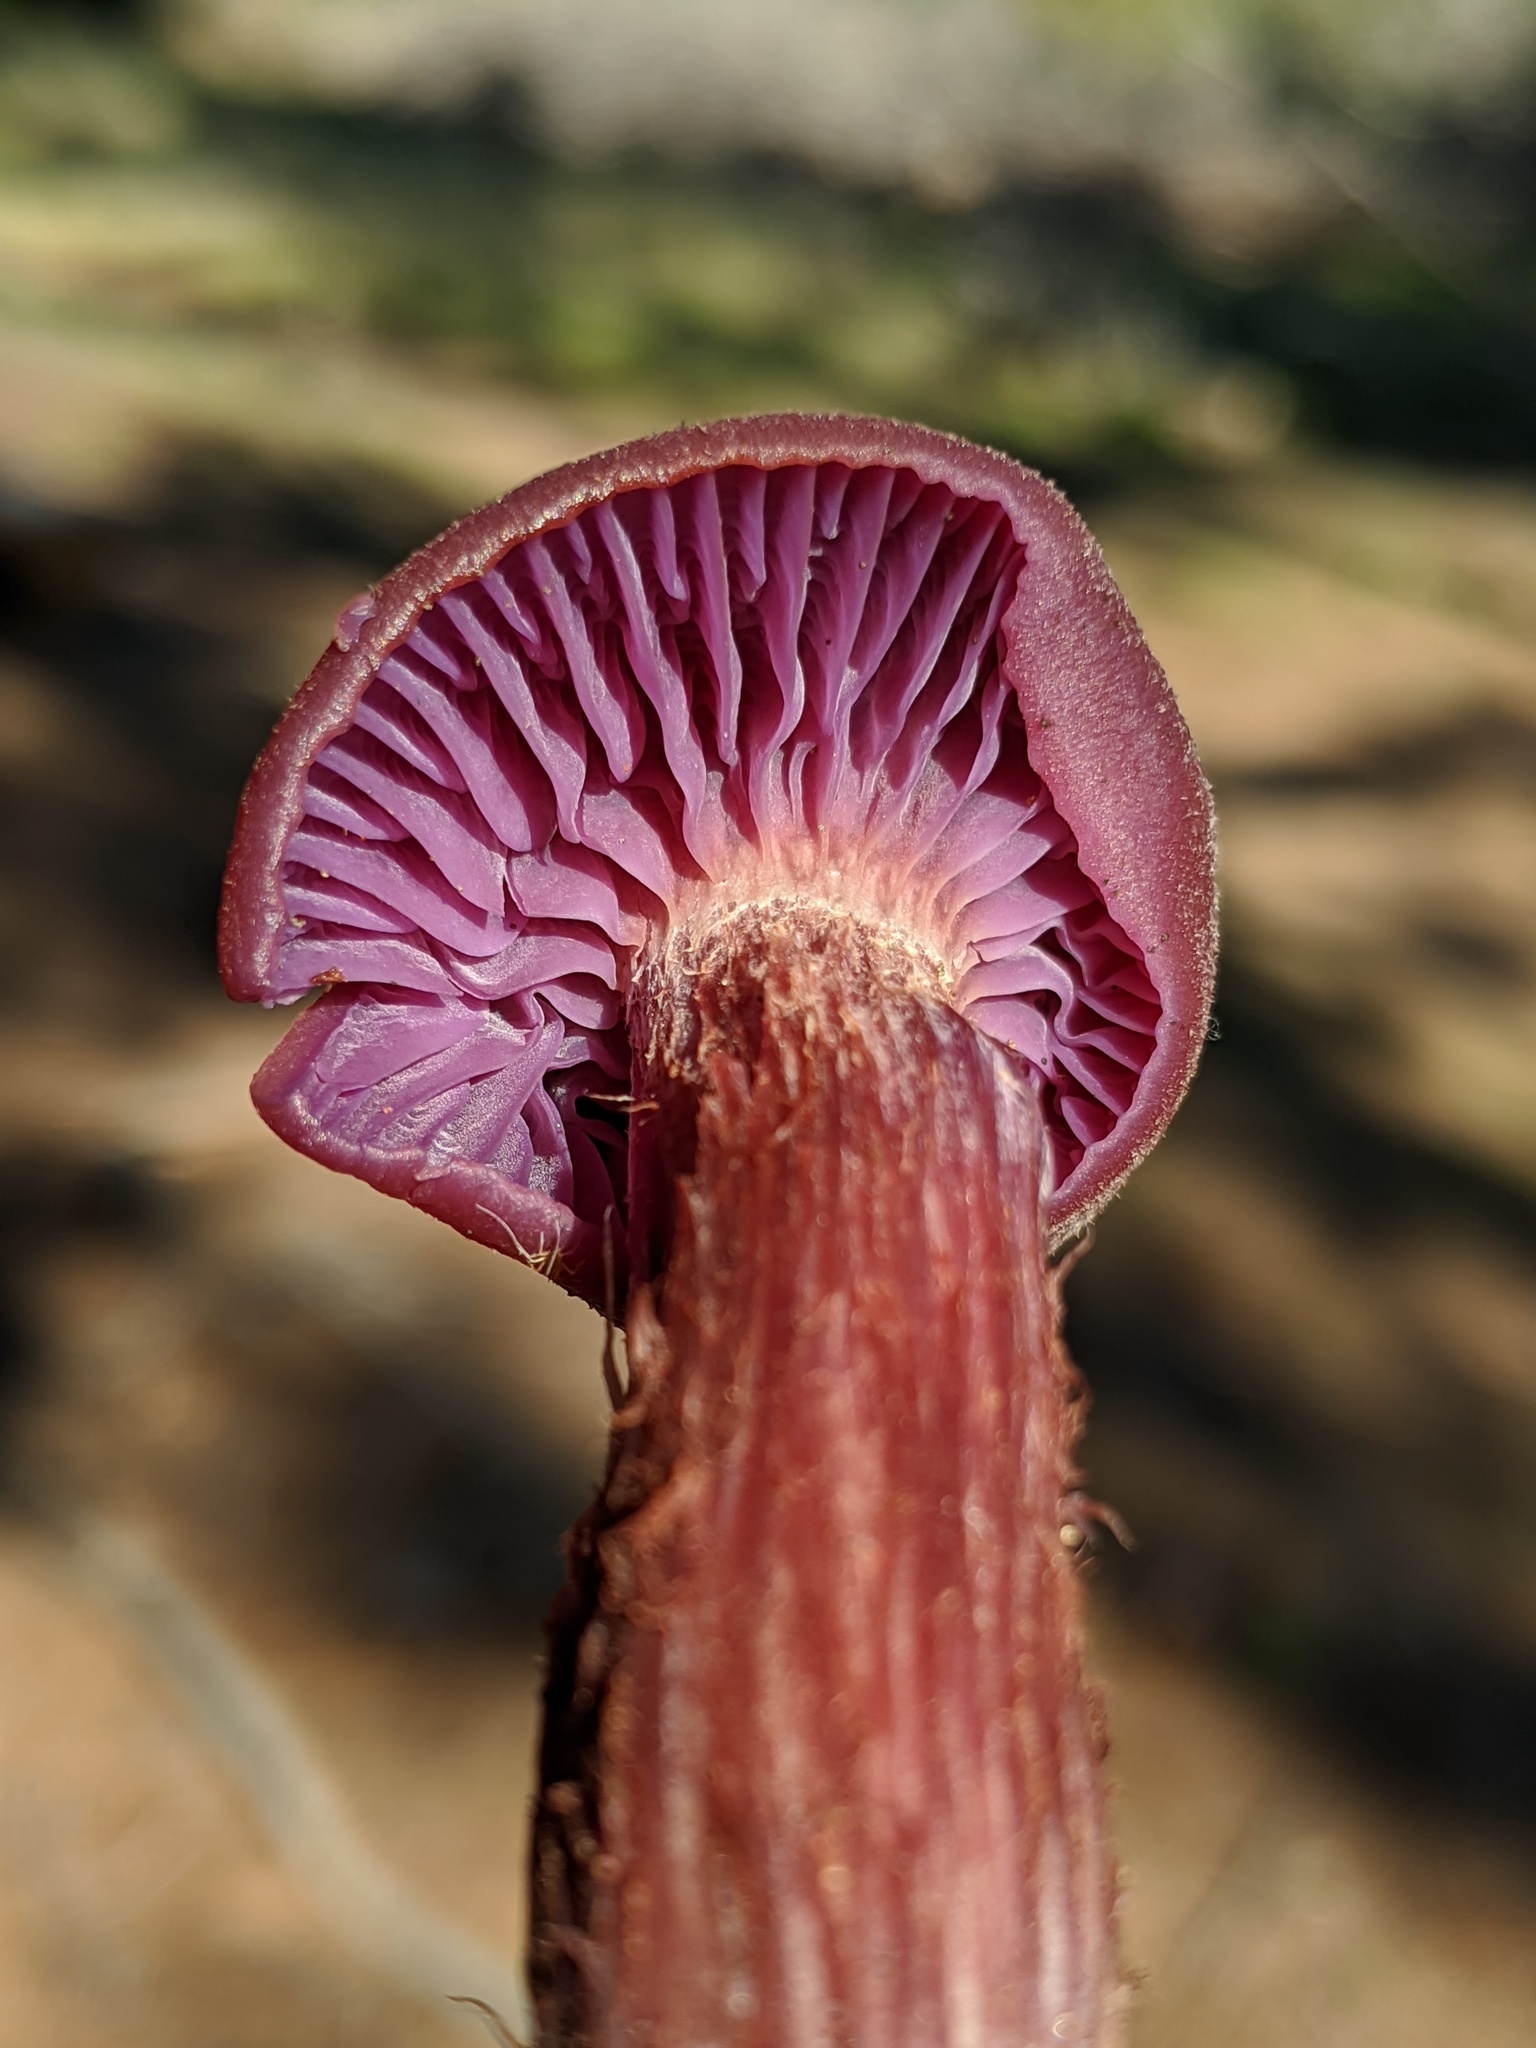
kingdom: Fungi
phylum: Basidiomycota
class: Agaricomycetes
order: Agaricales
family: Hydnangiaceae
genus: Laccaria
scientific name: Laccaria amethysteo-occidentalis
